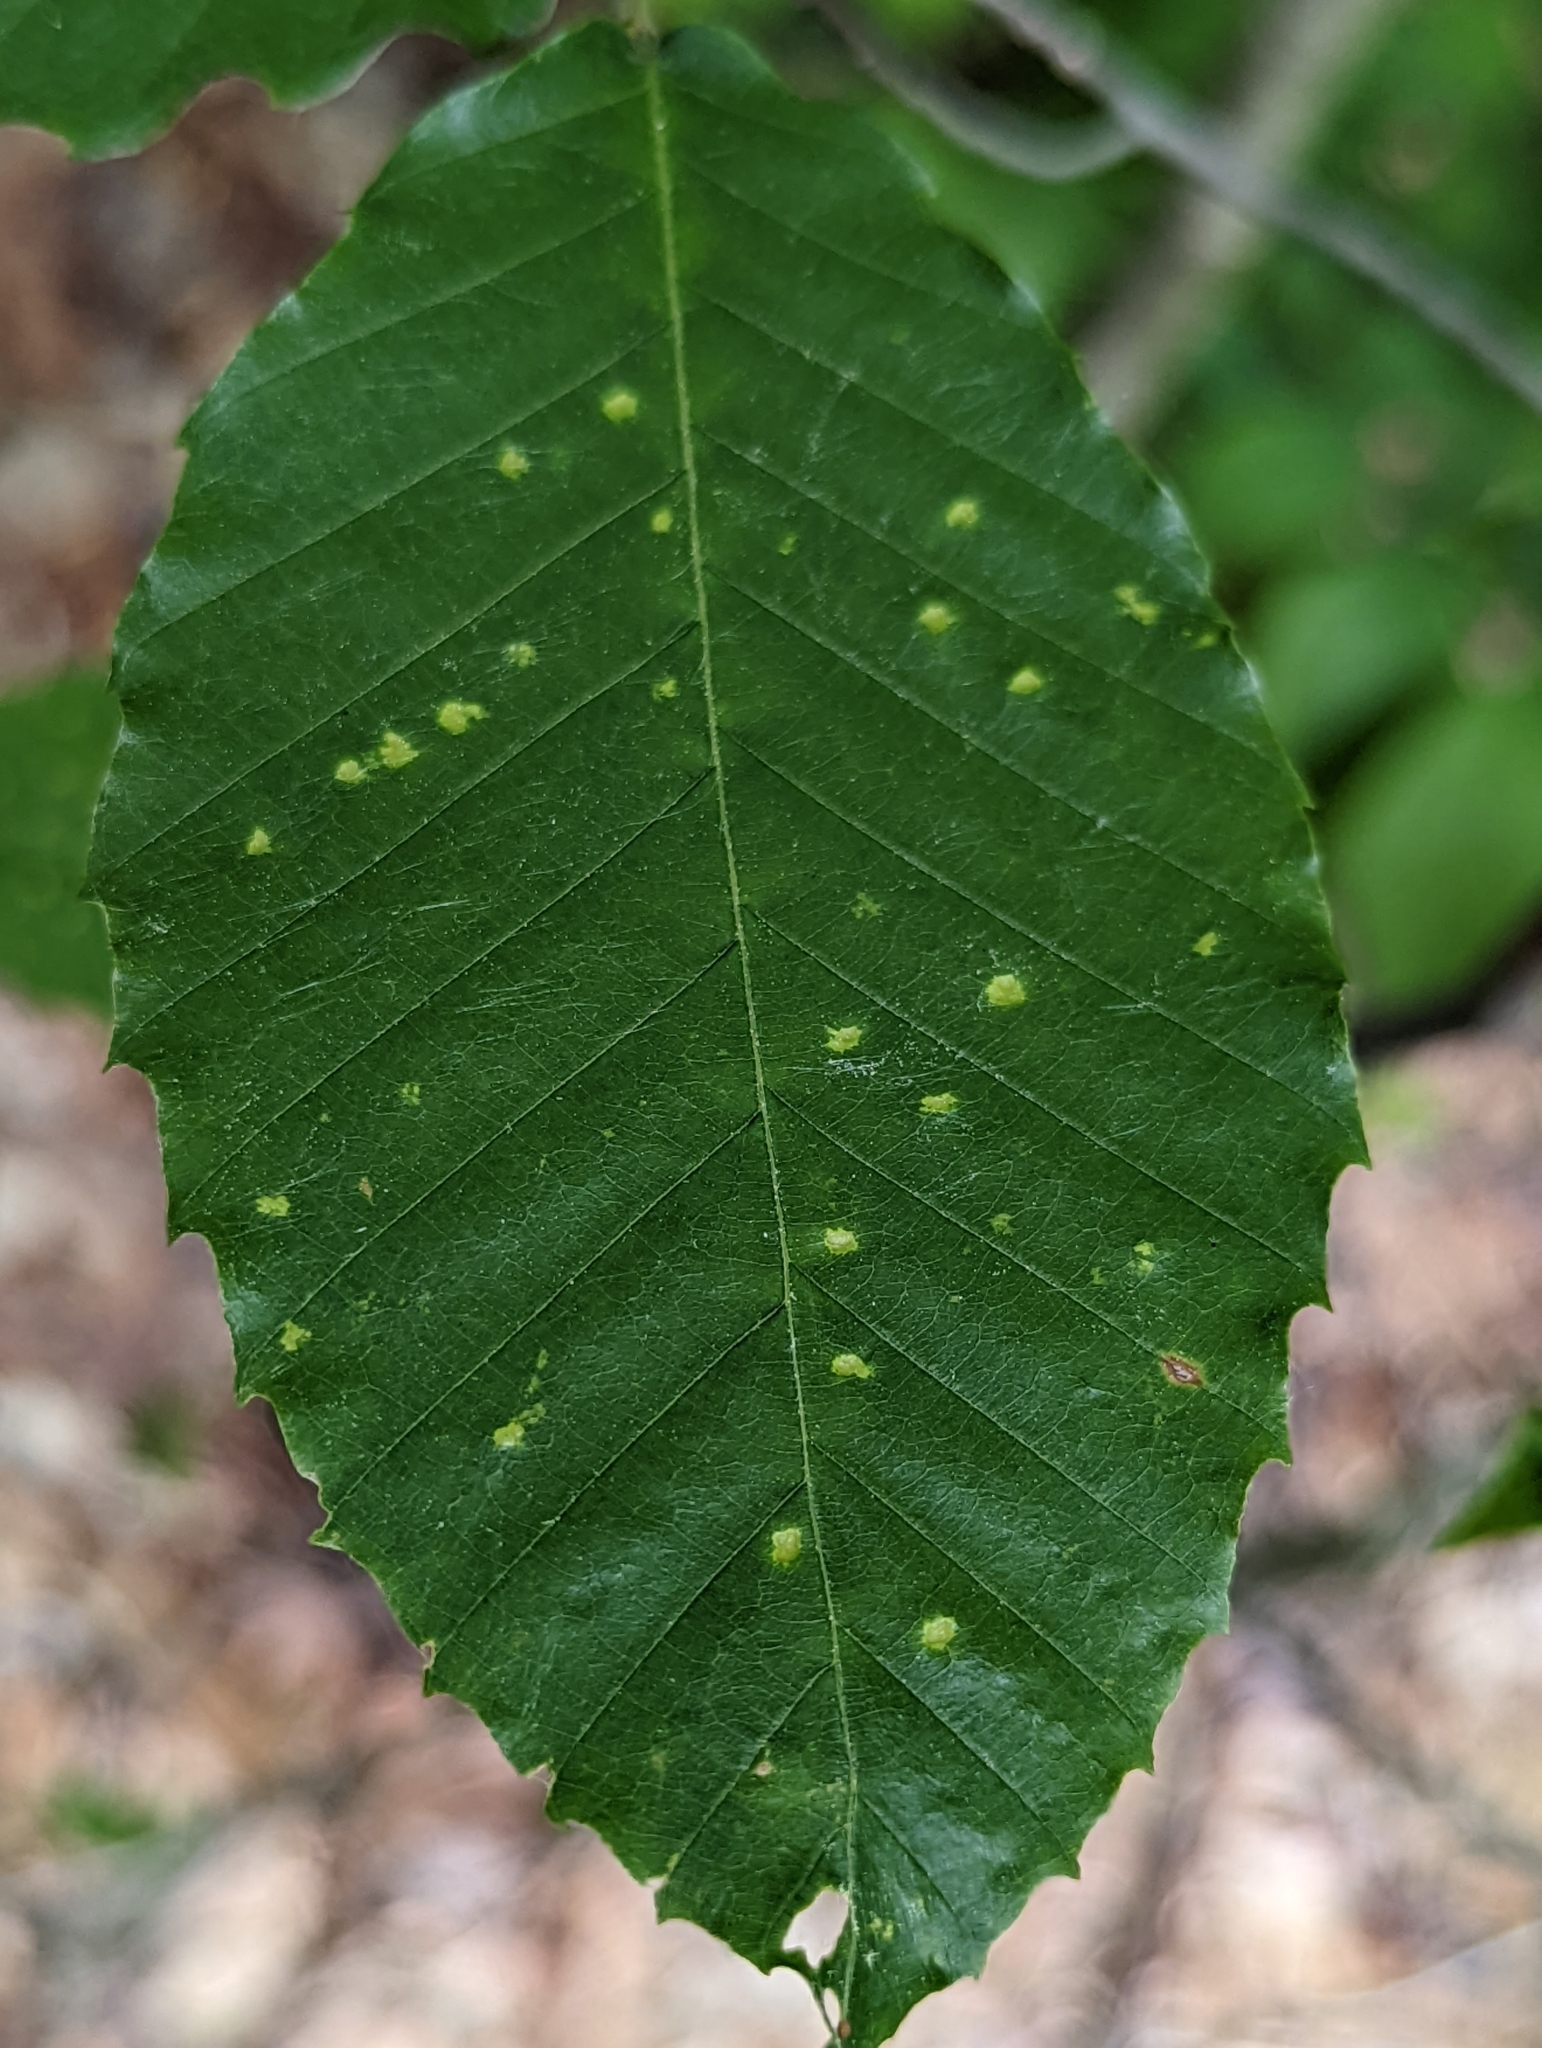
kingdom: Plantae
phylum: Tracheophyta
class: Magnoliopsida
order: Fagales
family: Fagaceae
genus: Fagus
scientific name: Fagus grandifolia
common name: American beech
